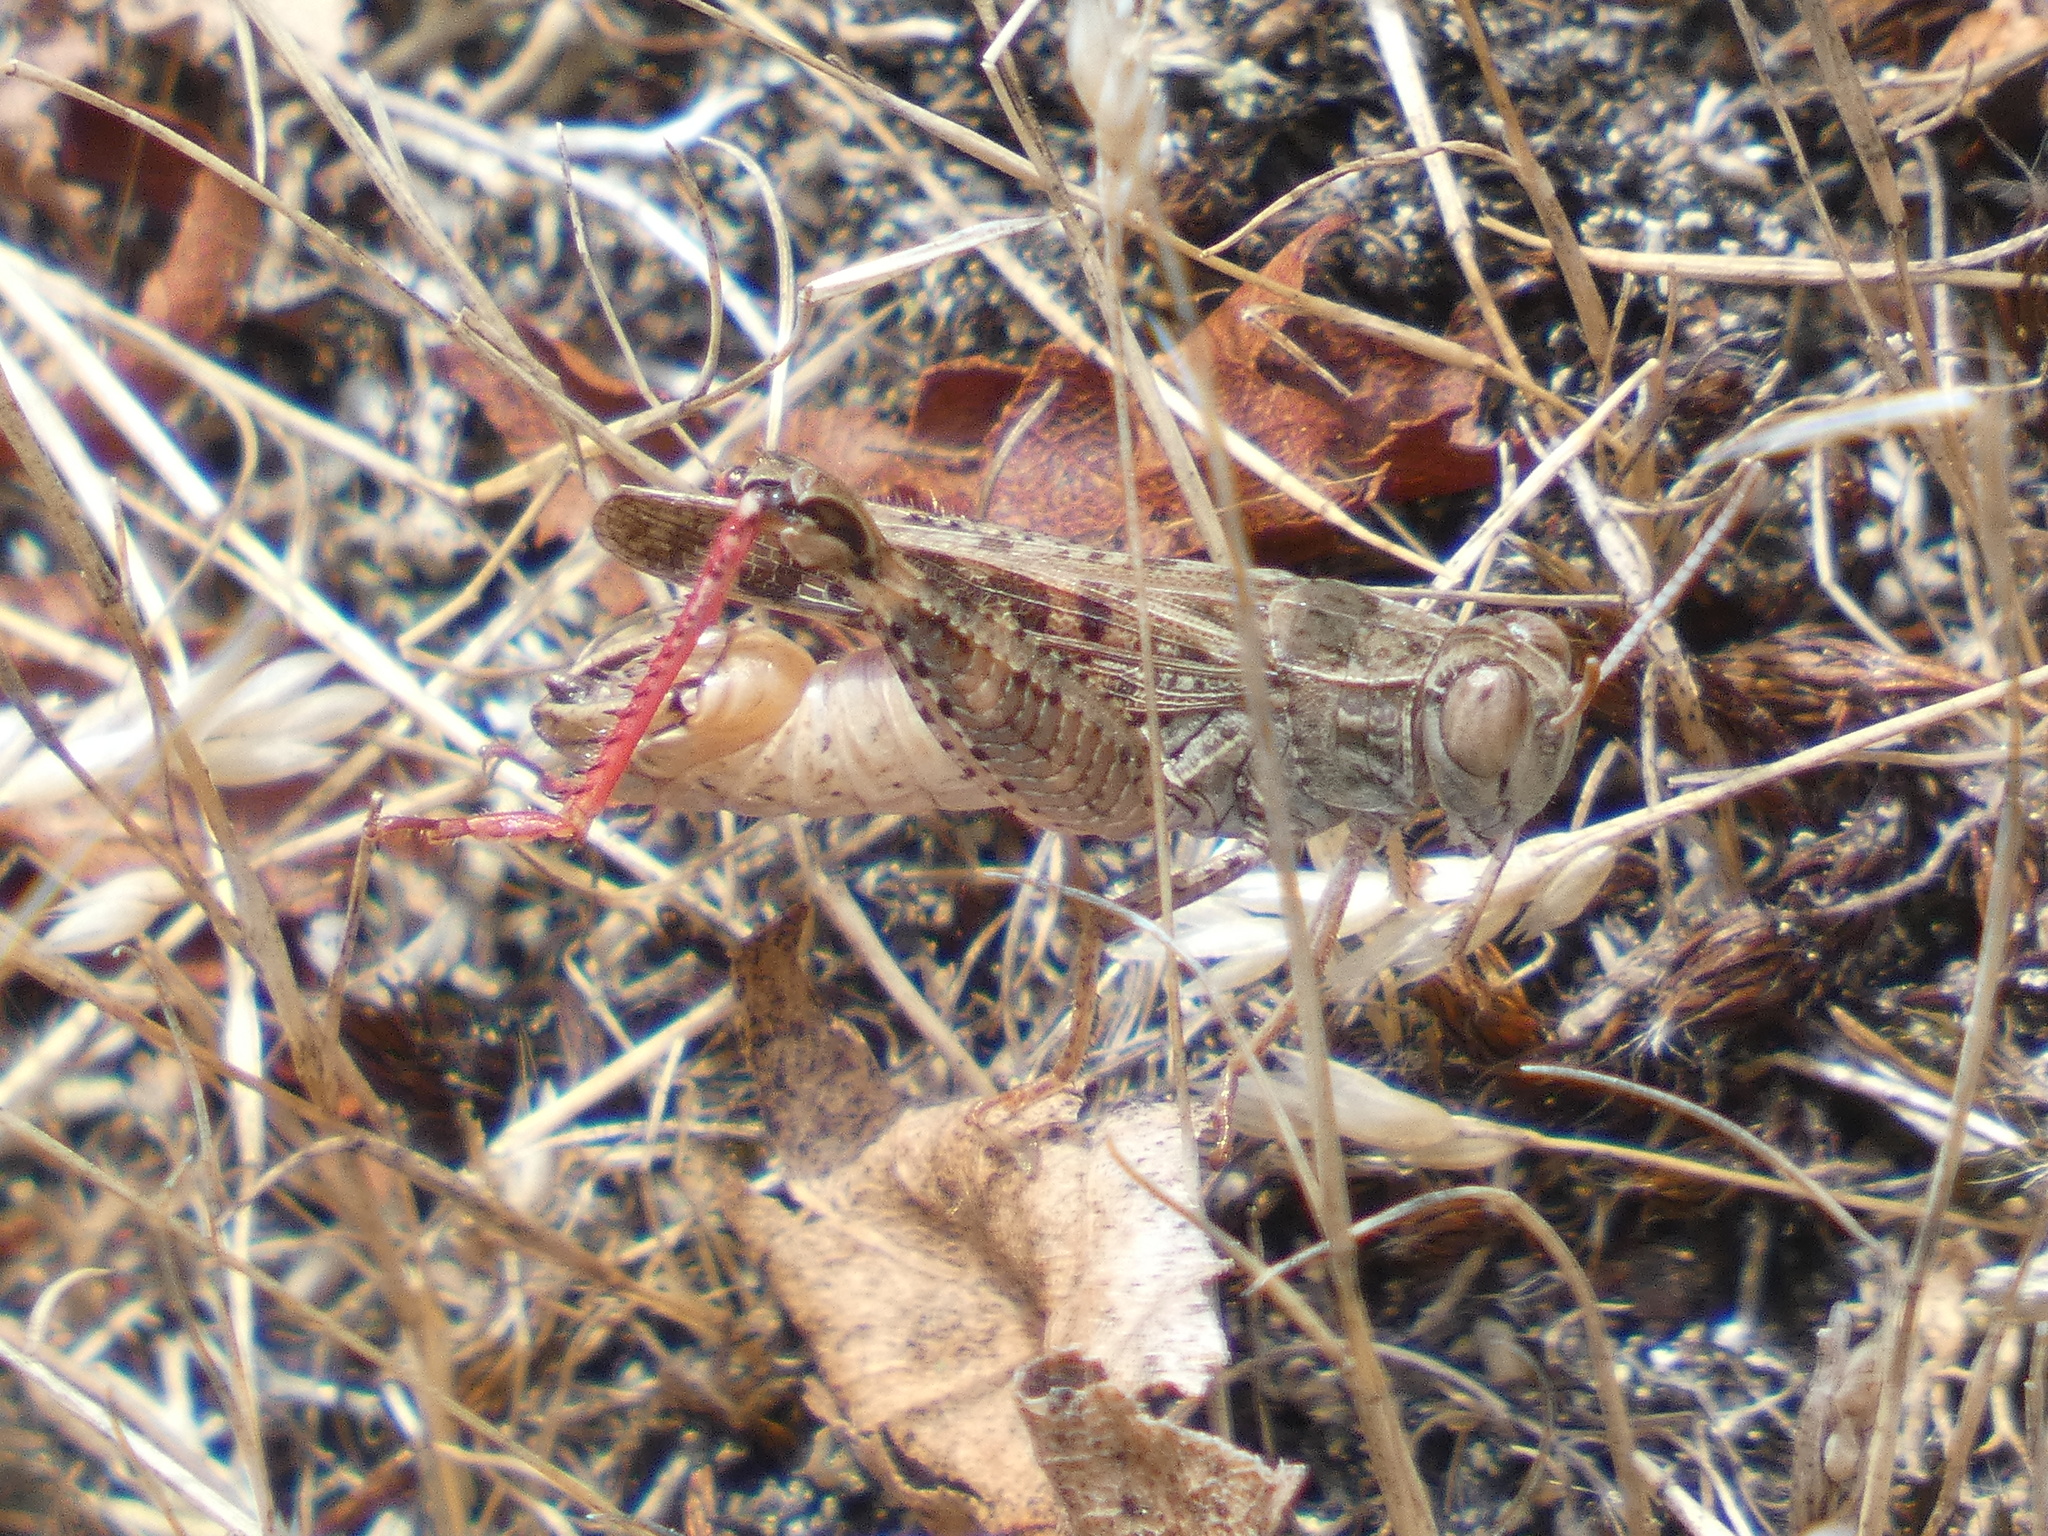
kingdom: Animalia
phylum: Arthropoda
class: Insecta
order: Orthoptera
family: Acrididae
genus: Calliptamus
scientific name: Calliptamus italicus
